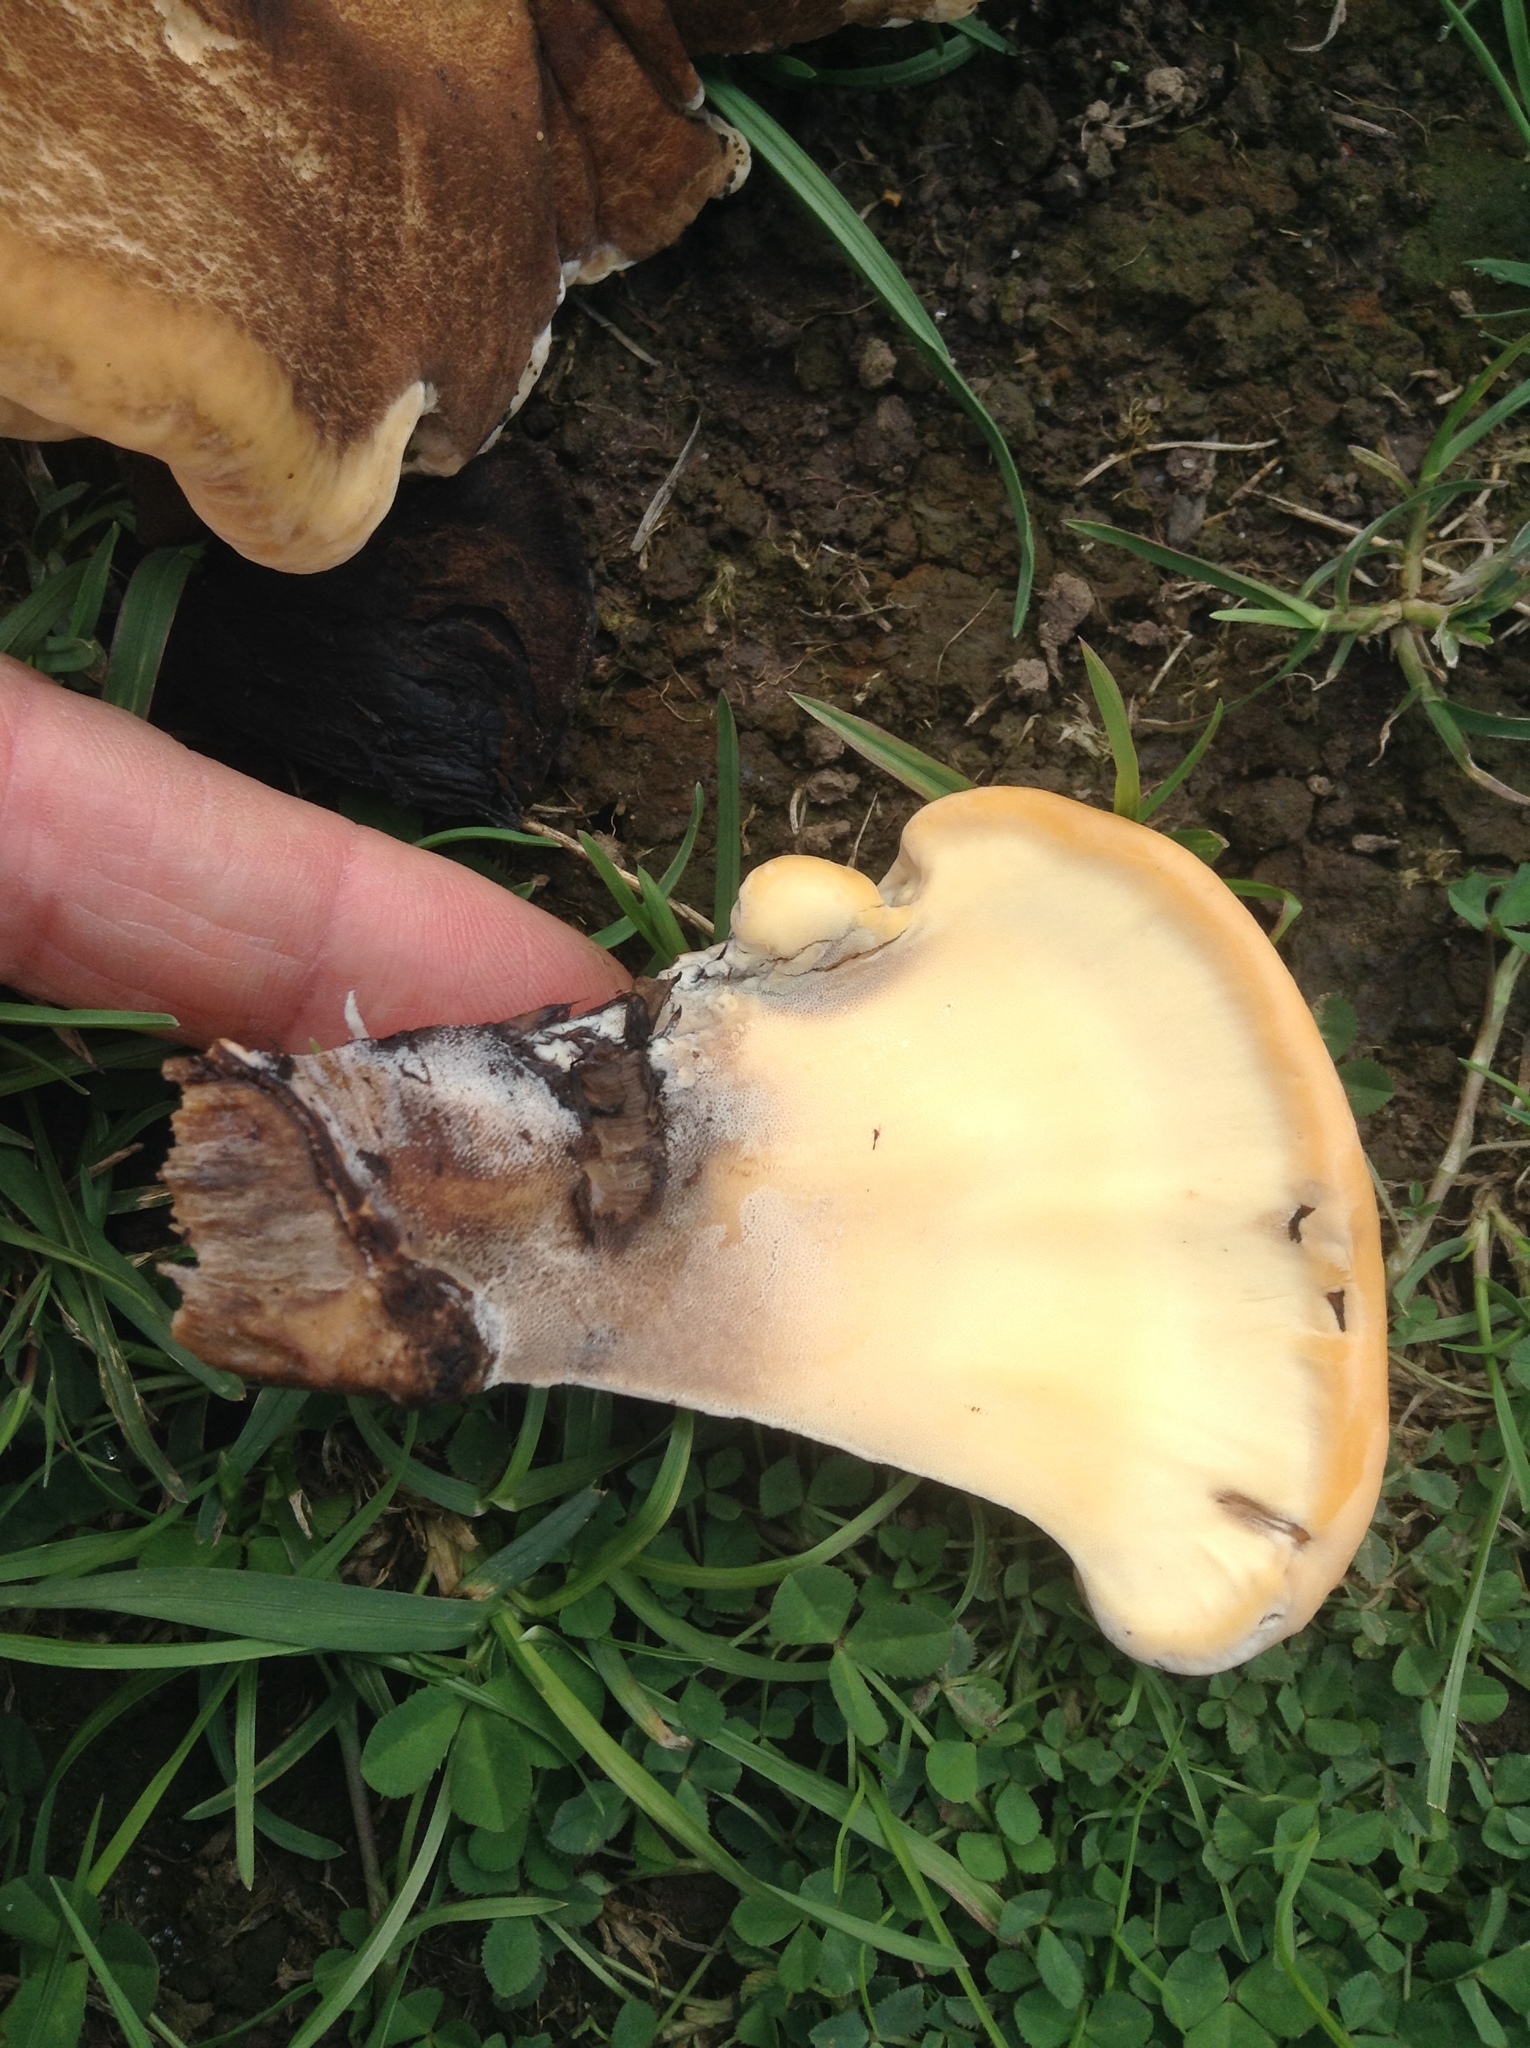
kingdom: Fungi
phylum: Basidiomycota
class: Agaricomycetes
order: Polyporales
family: Meripilaceae
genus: Meripilus
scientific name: Meripilus giganteus
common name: Giant polypore
